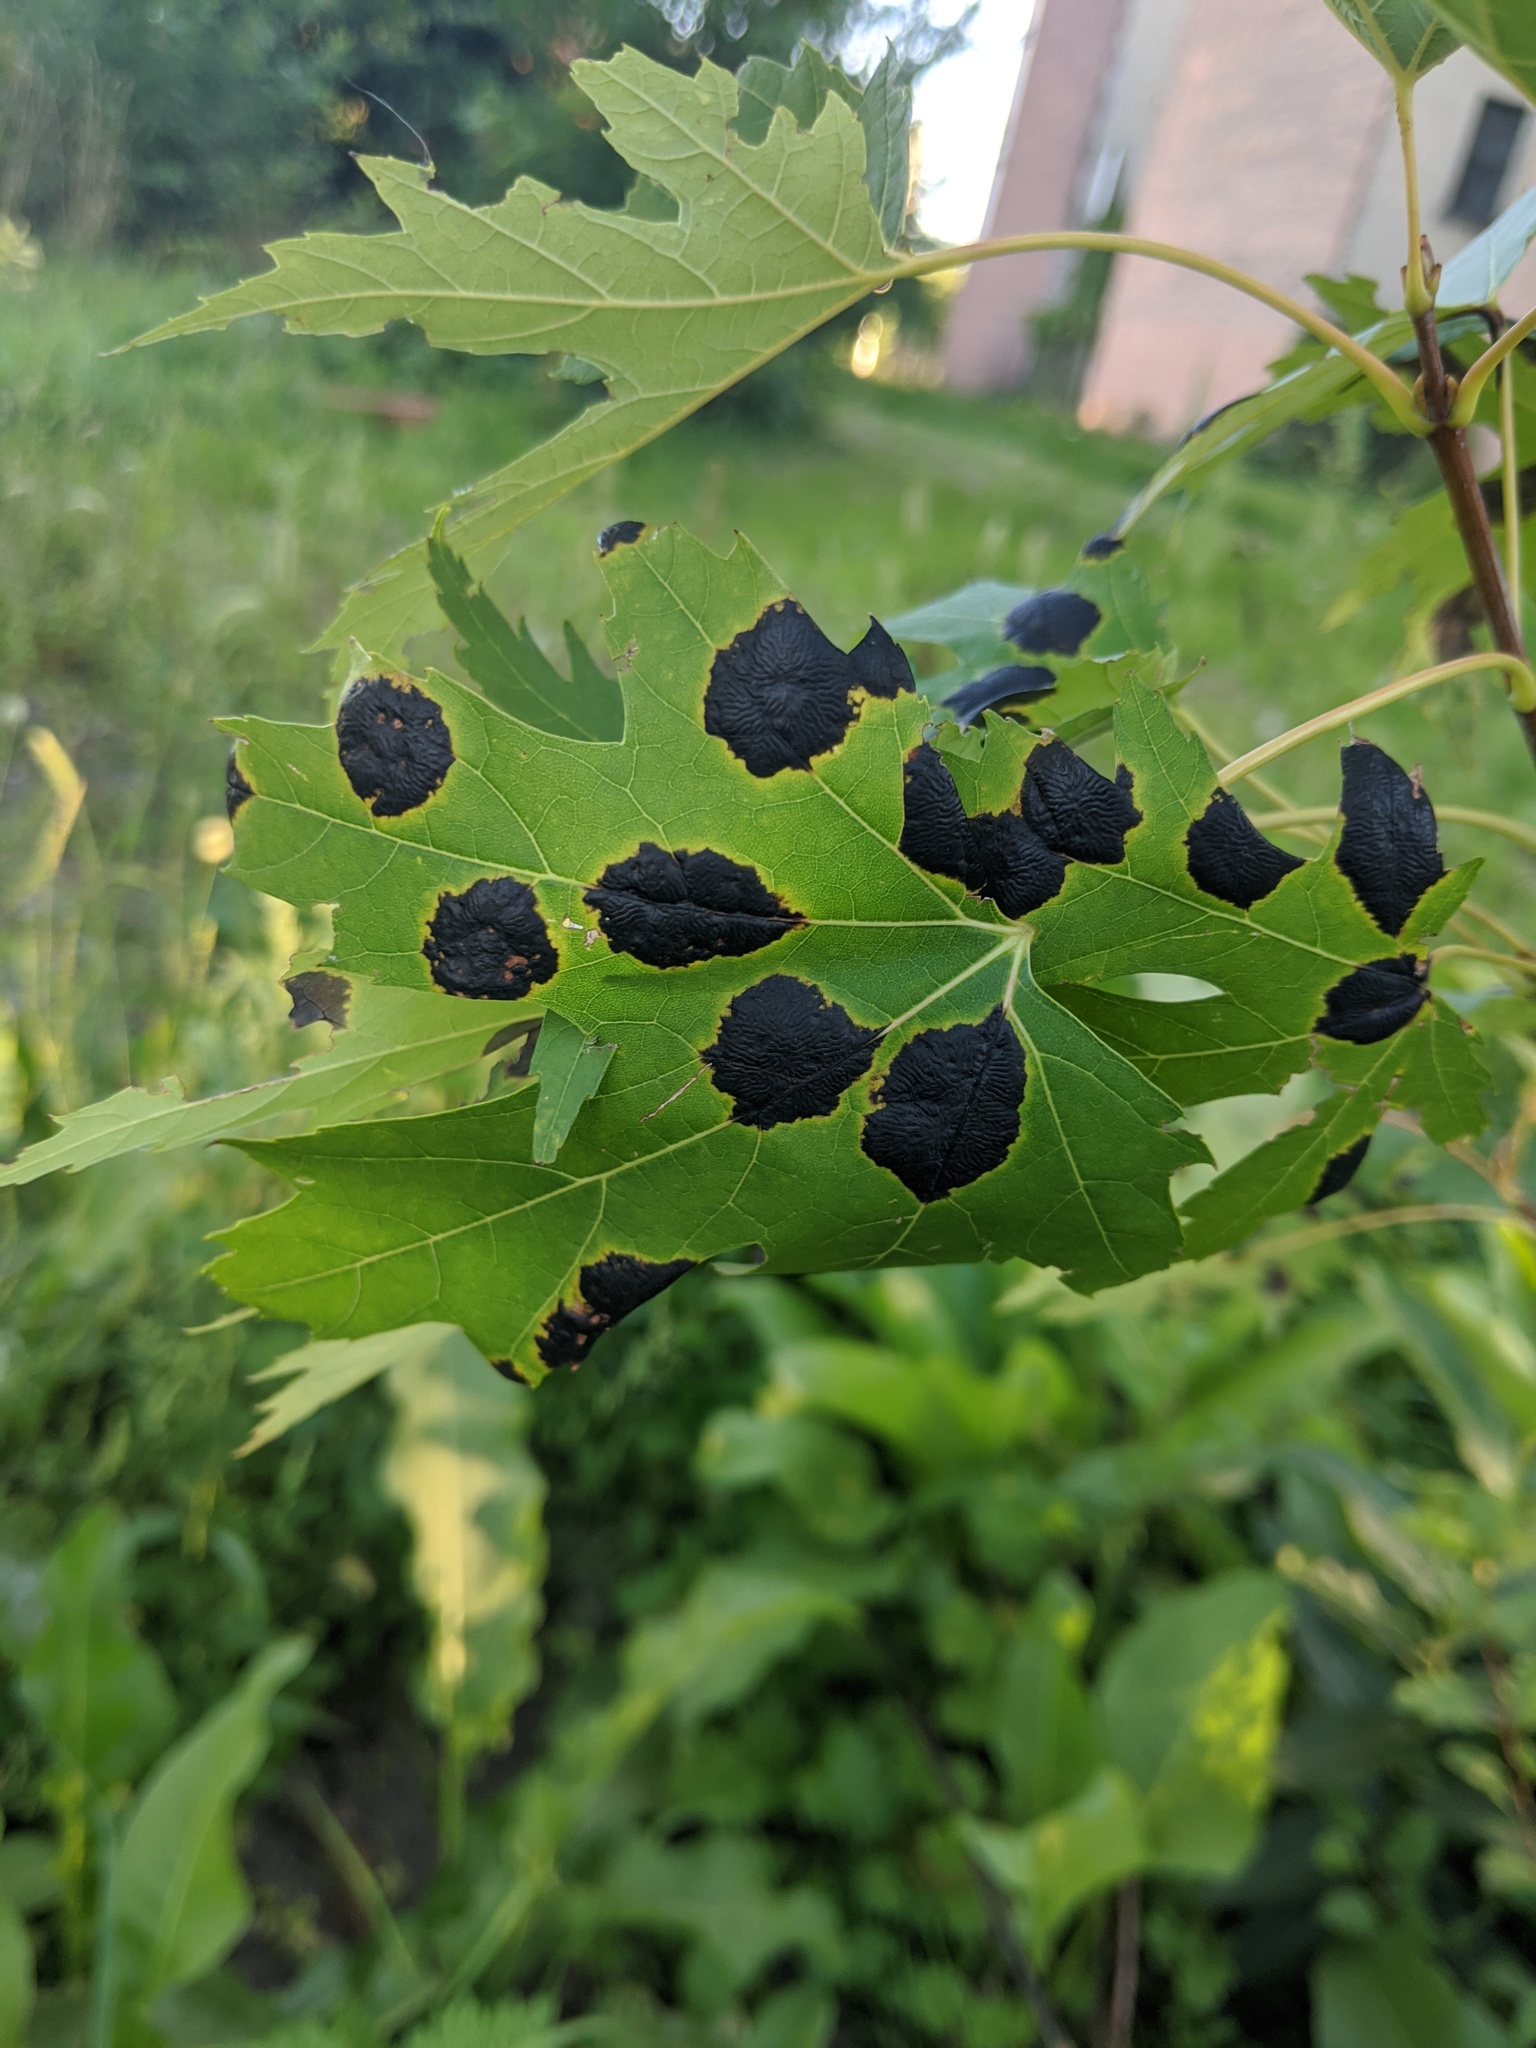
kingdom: Fungi
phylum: Ascomycota
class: Leotiomycetes
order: Rhytismatales
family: Rhytismataceae
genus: Rhytisma
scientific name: Rhytisma americanum
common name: American tar spot
